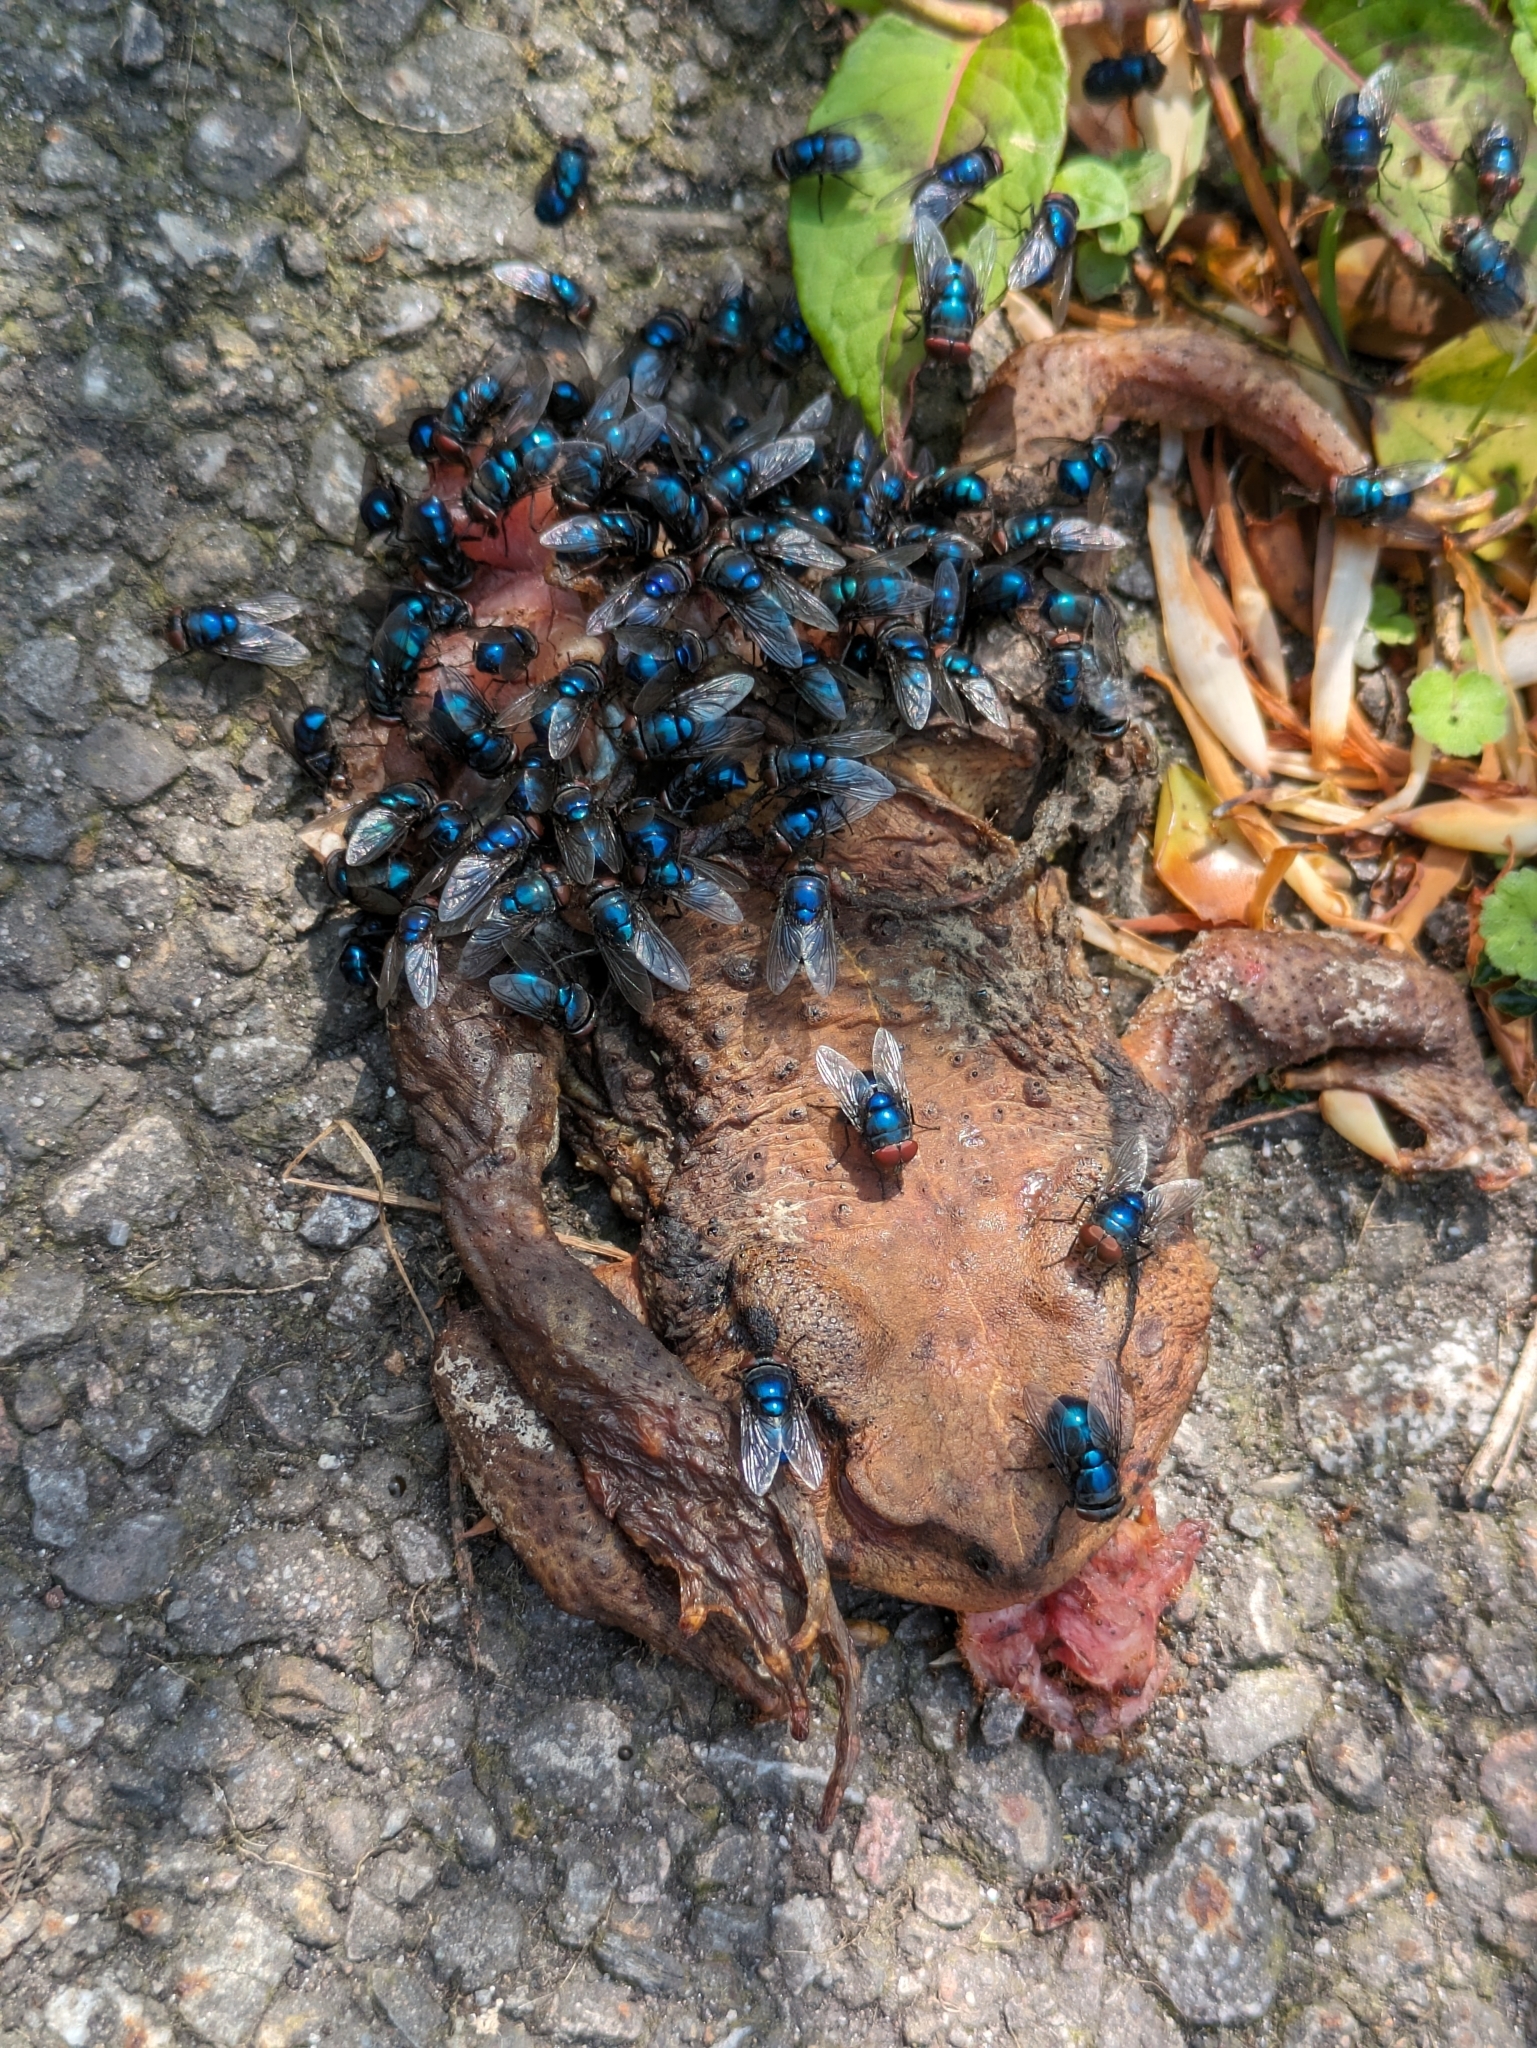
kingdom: Animalia
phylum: Chordata
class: Amphibia
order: Anura
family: Bufonidae
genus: Bufo
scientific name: Bufo bankorensis
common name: Bankor toad
